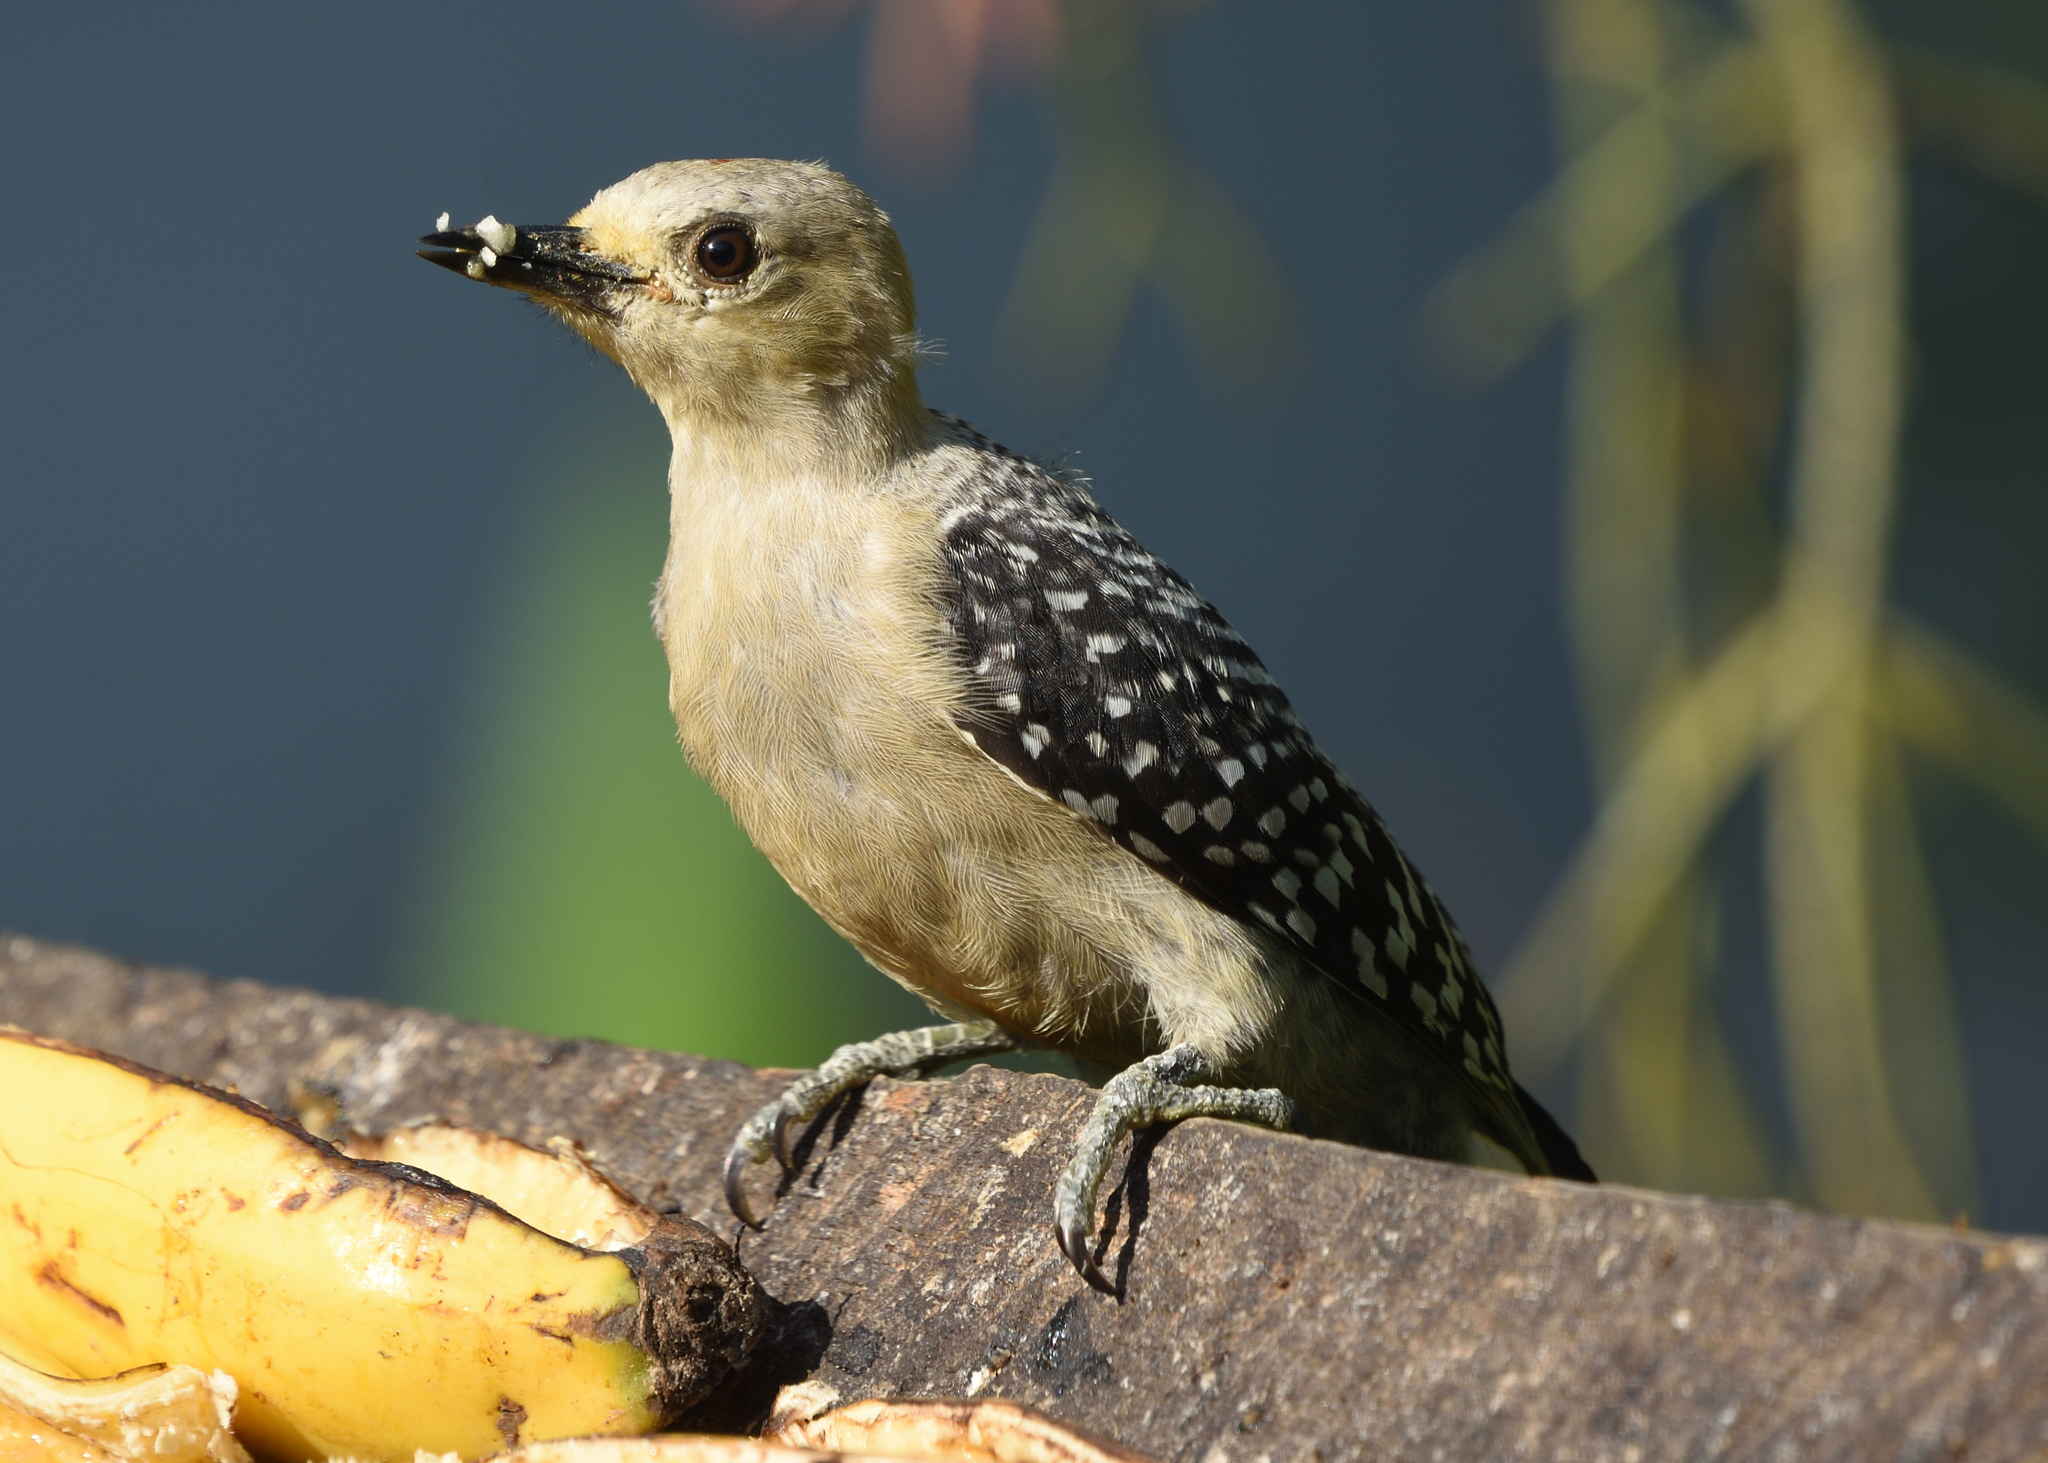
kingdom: Animalia
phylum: Chordata
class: Aves
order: Piciformes
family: Picidae
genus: Melanerpes
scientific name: Melanerpes rubricapillus
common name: Red-crowned woodpecker
